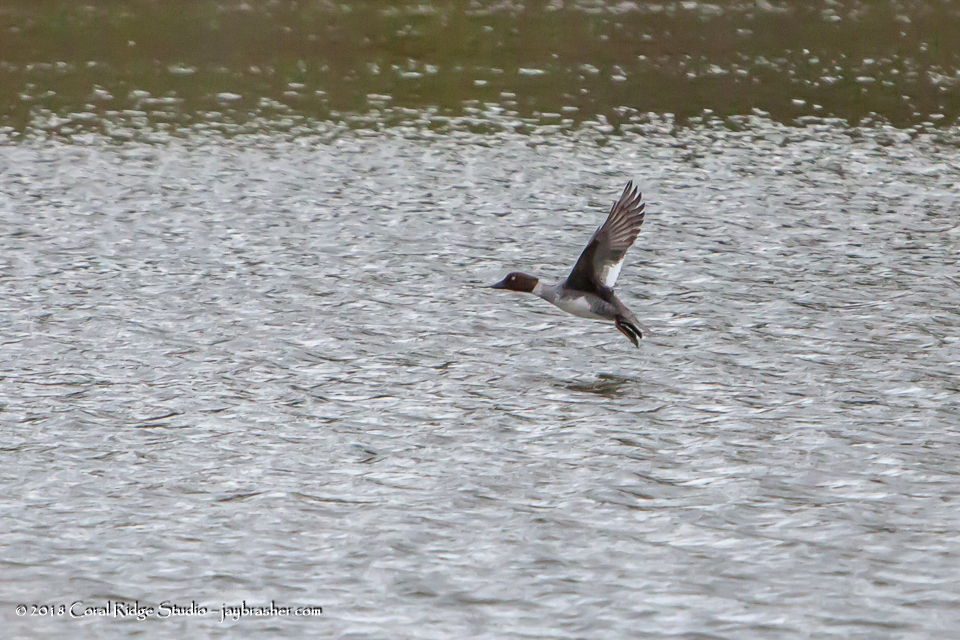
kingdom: Animalia
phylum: Chordata
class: Aves
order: Anseriformes
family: Anatidae
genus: Bucephala
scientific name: Bucephala clangula
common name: Common goldeneye
